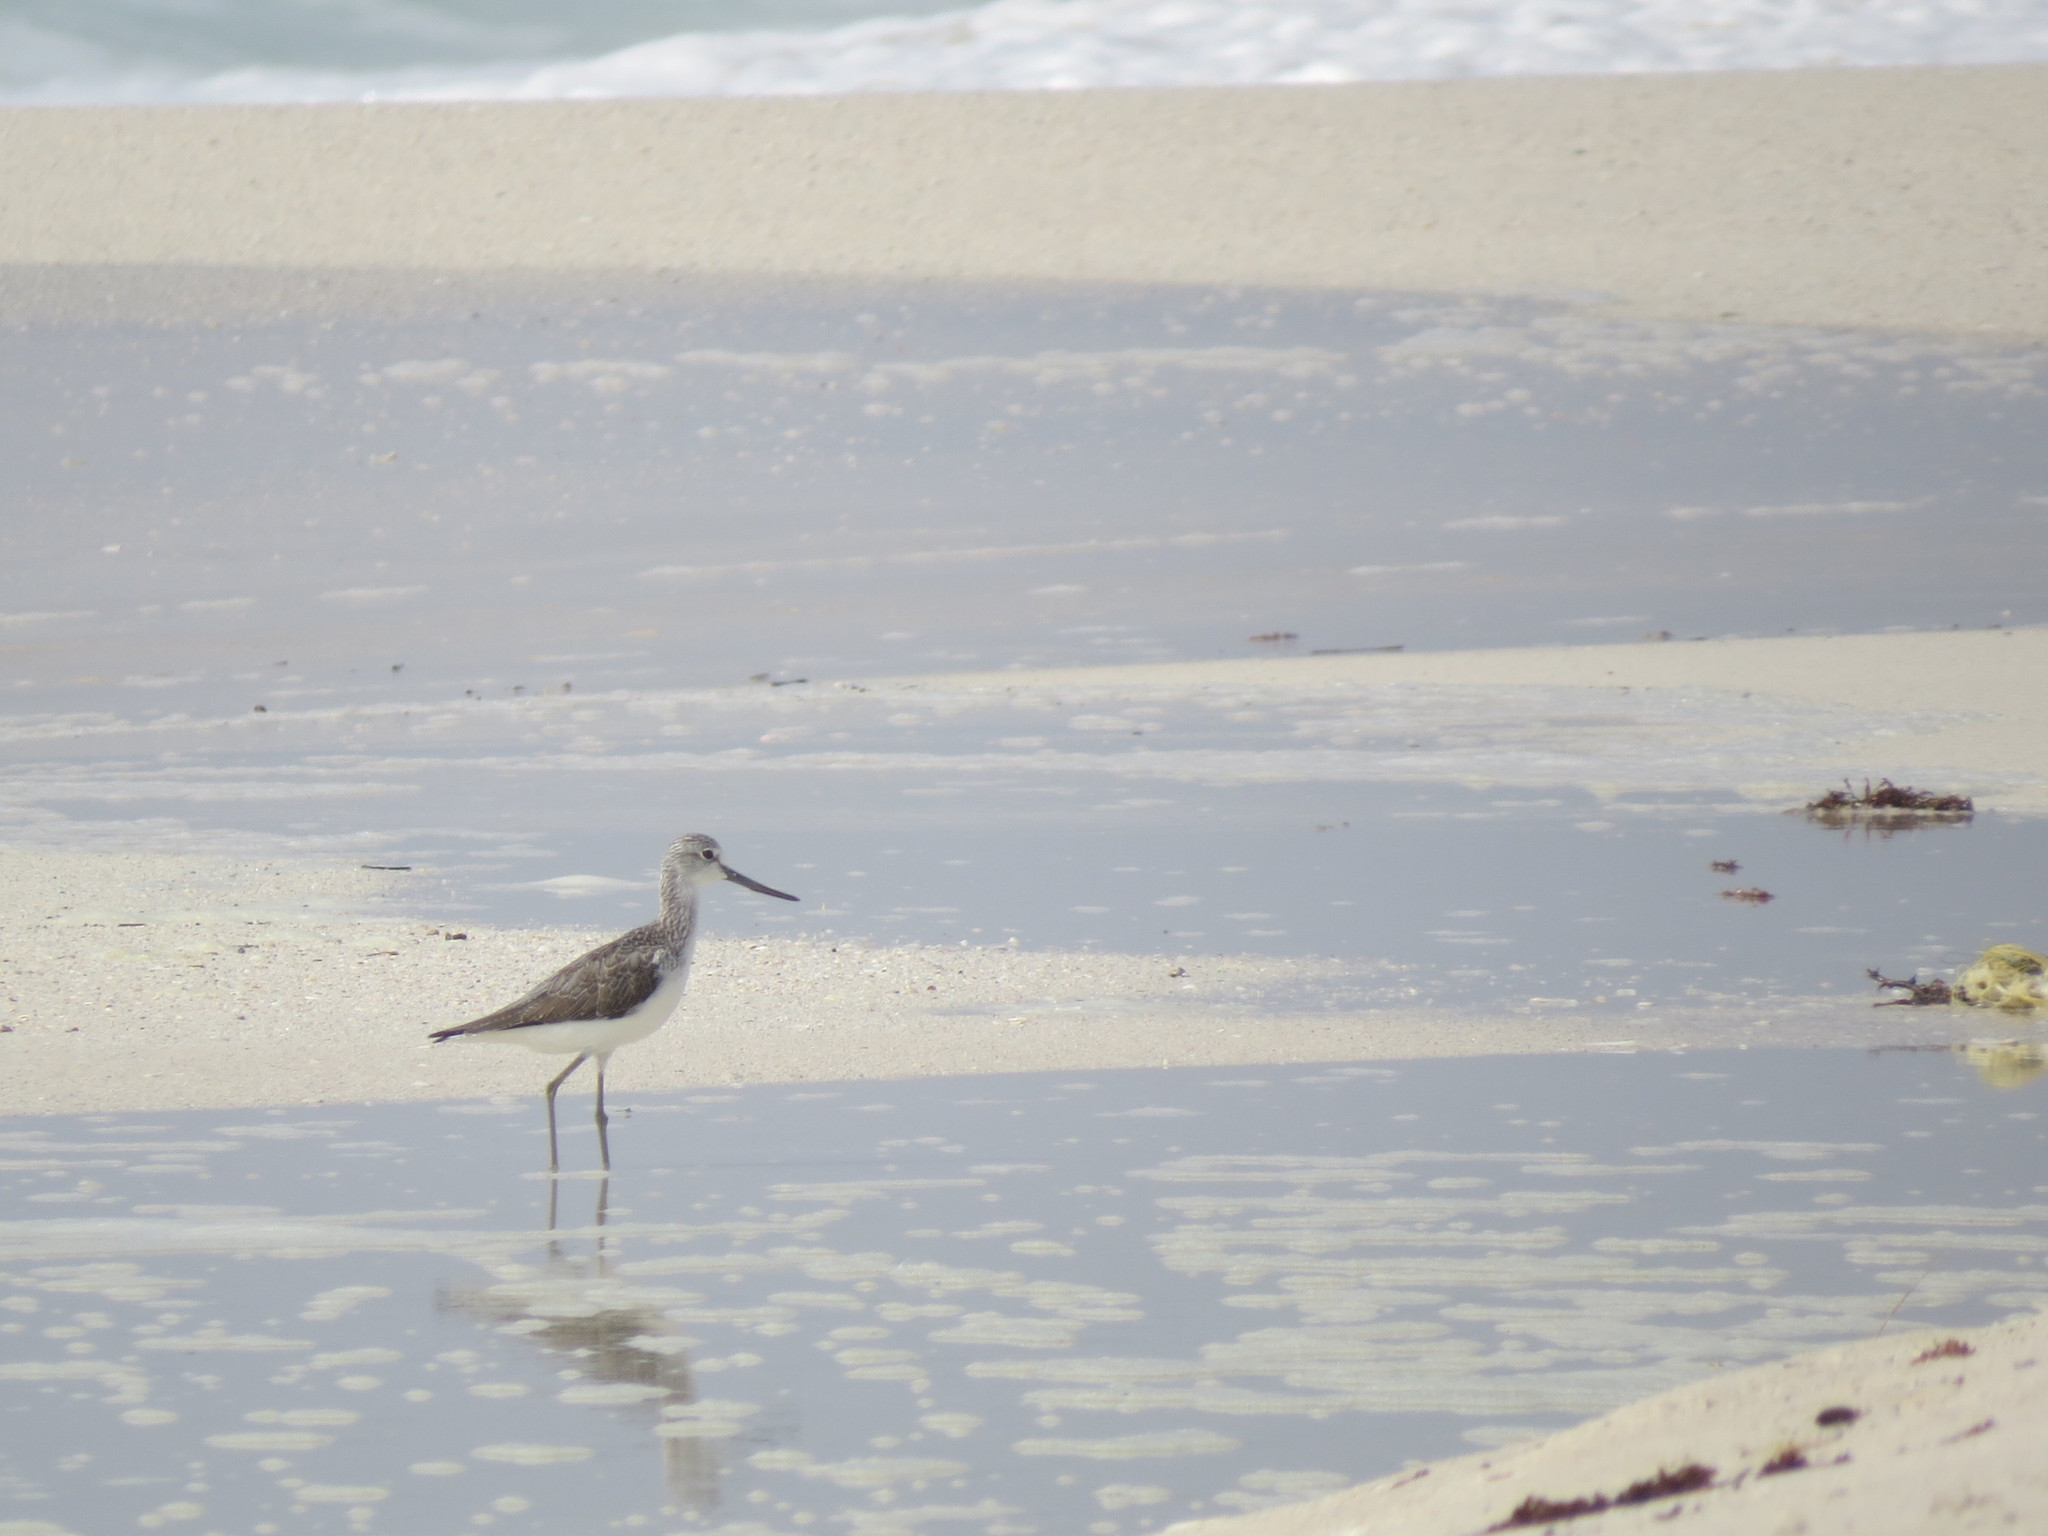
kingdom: Animalia
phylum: Chordata
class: Aves
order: Charadriiformes
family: Scolopacidae
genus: Tringa
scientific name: Tringa nebularia
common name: Common greenshank
